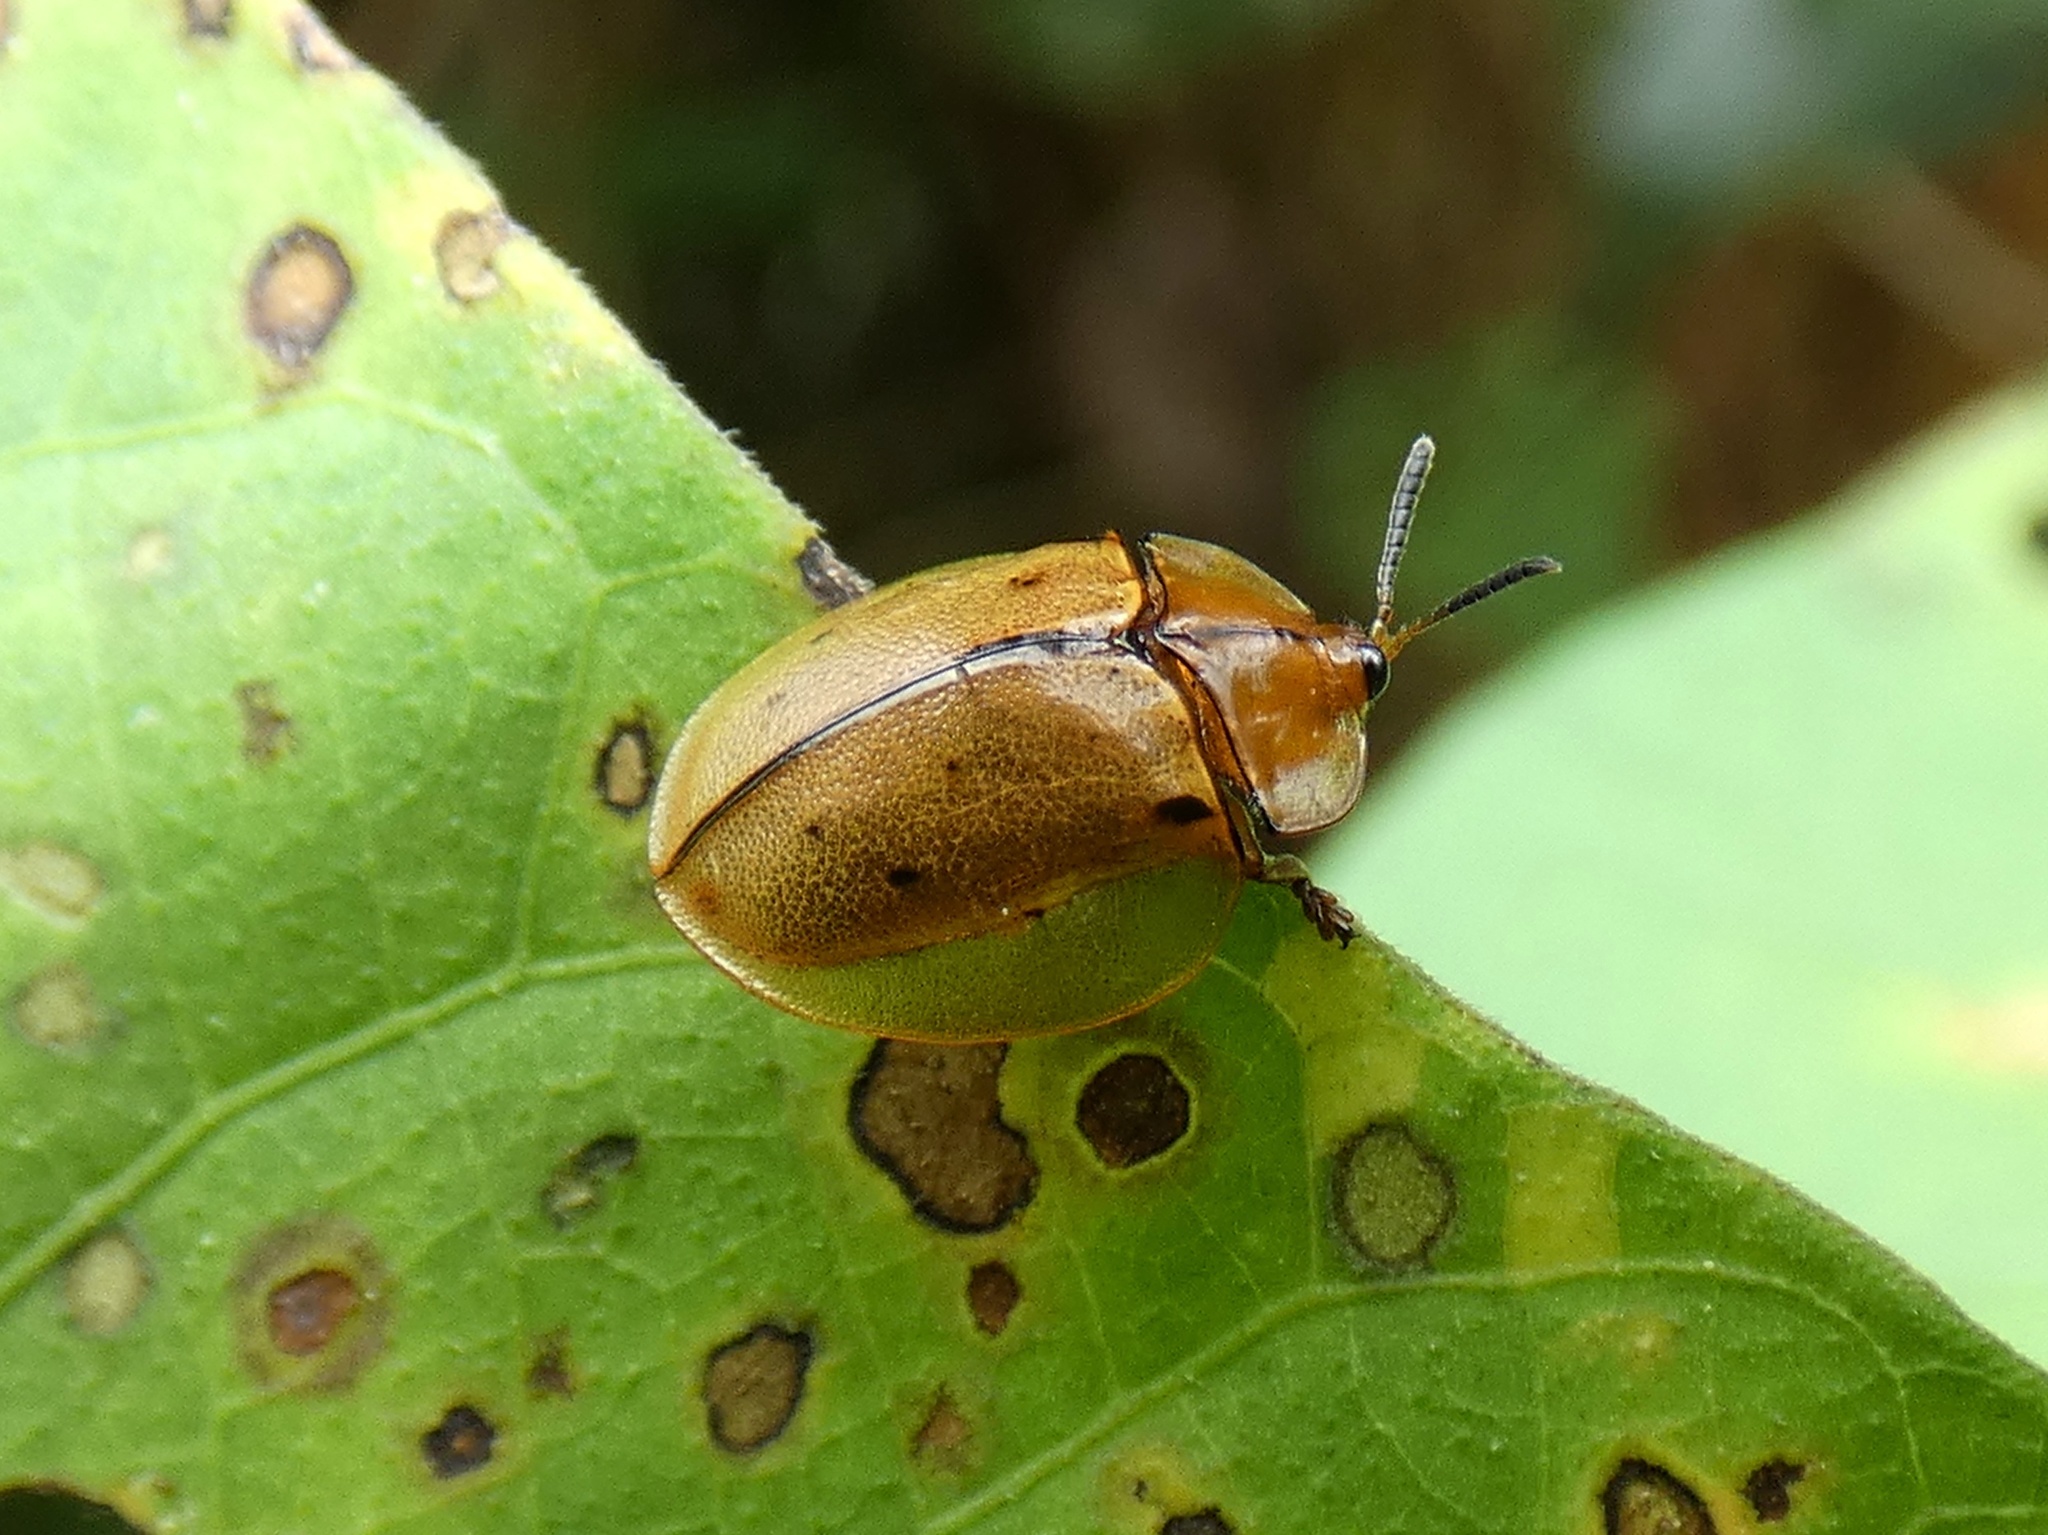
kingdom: Animalia
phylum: Arthropoda
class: Insecta
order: Coleoptera
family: Chrysomelidae
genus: Stolas
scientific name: Stolas pertusa
